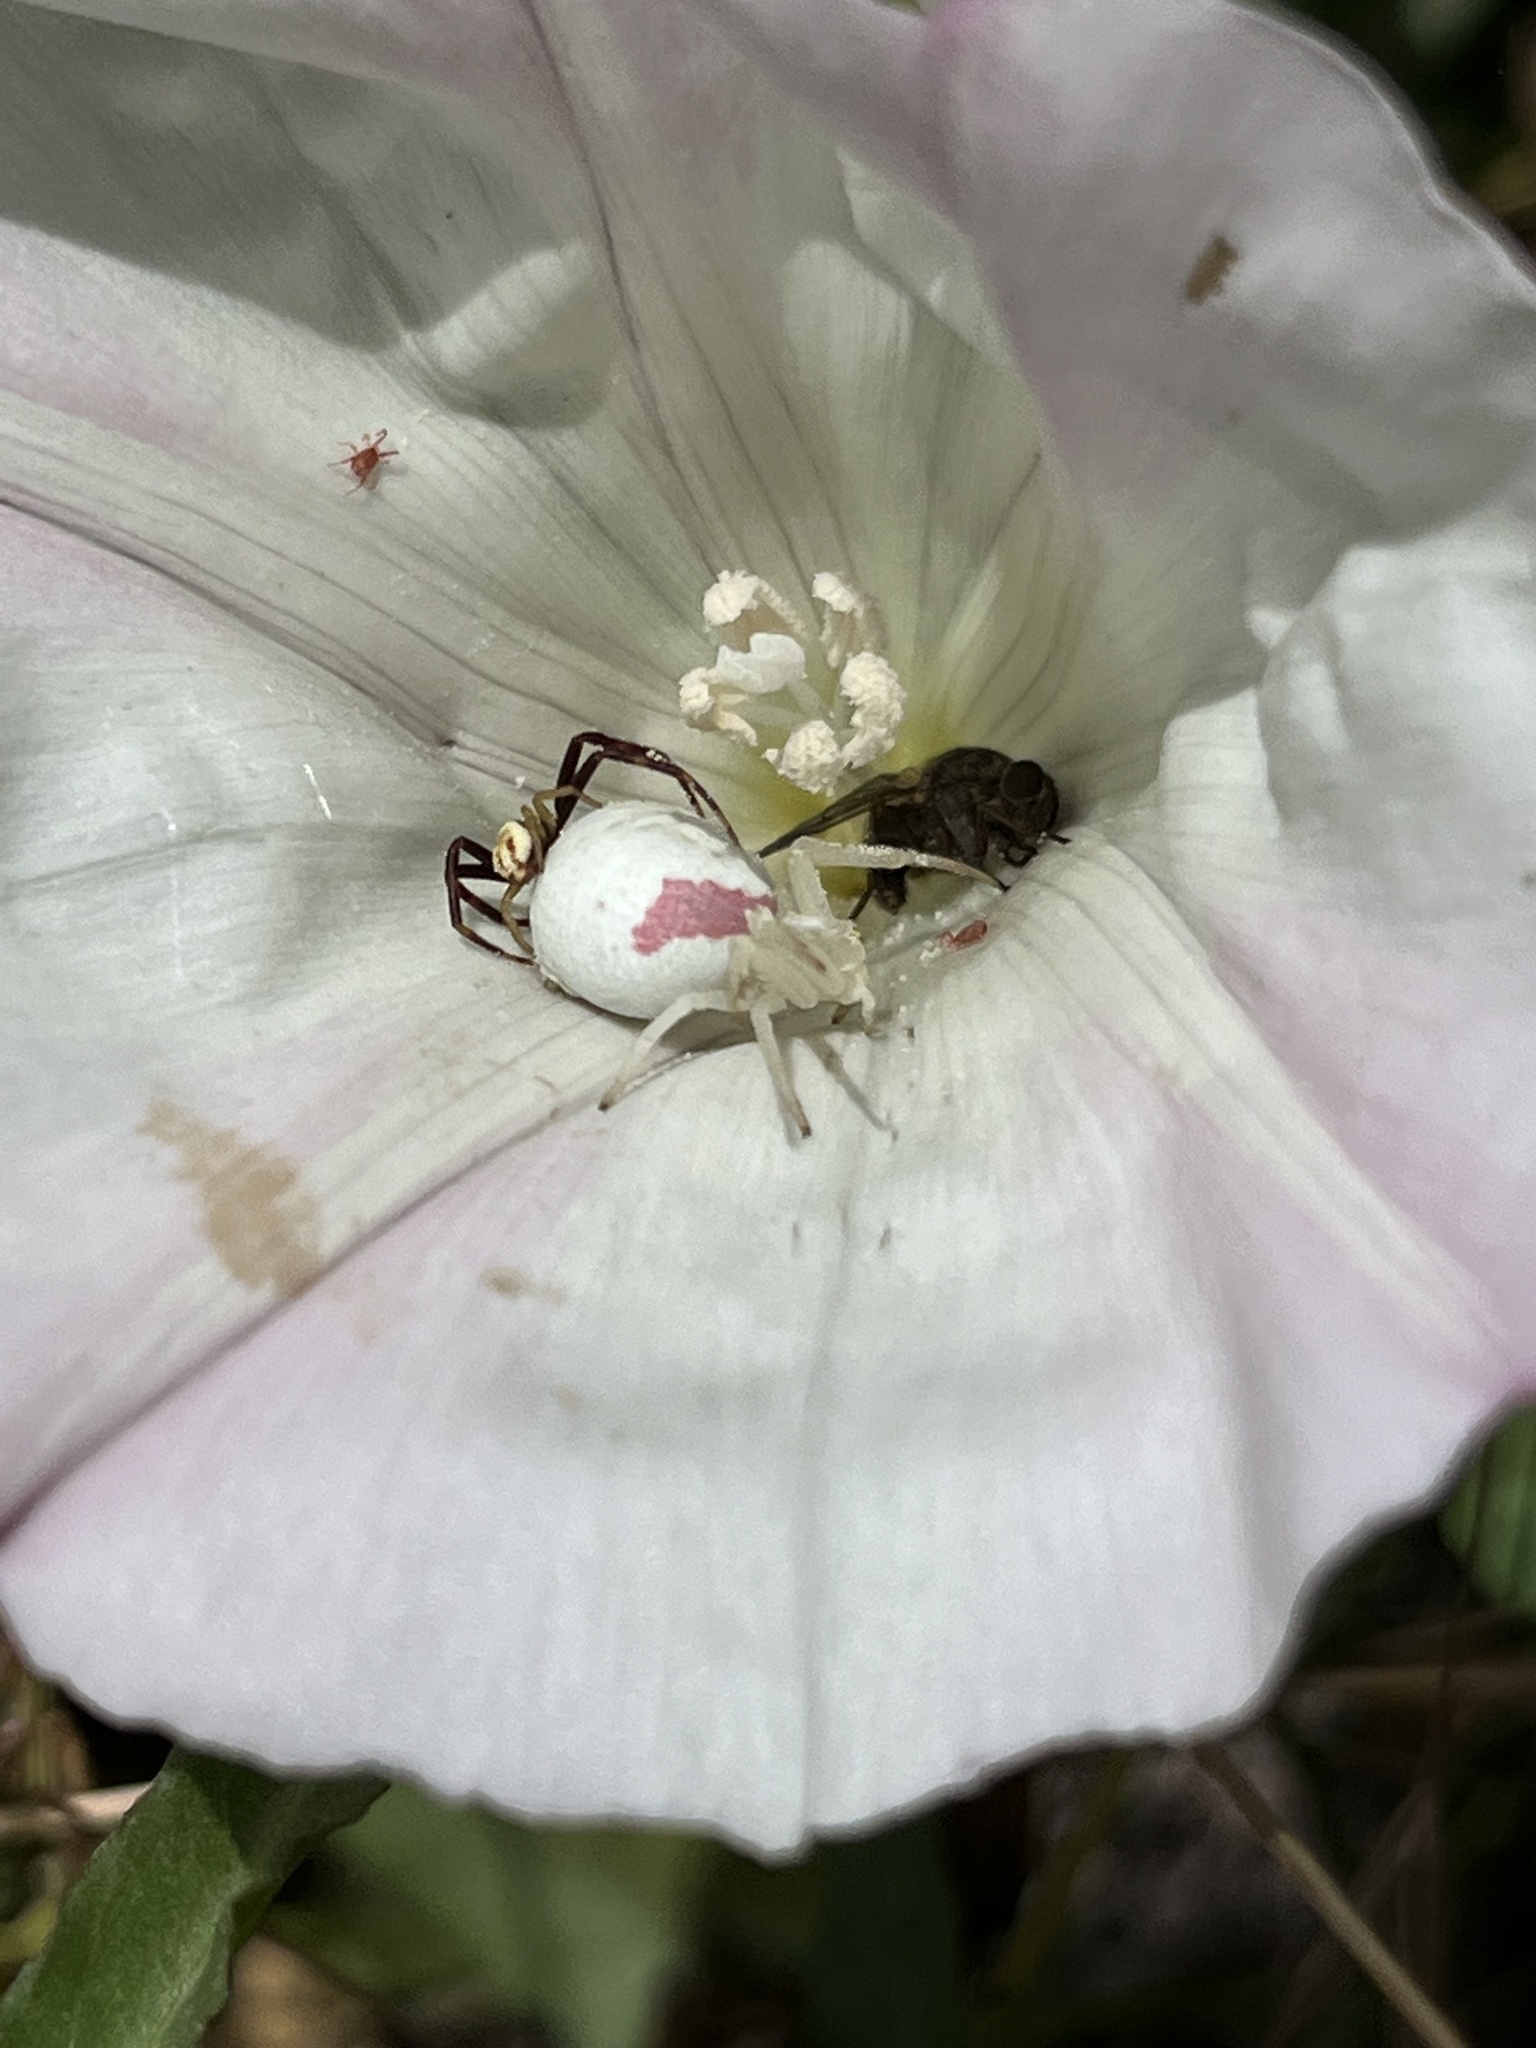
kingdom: Animalia
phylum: Arthropoda
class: Arachnida
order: Araneae
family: Thomisidae
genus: Misumena
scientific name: Misumena vatia
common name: Goldenrod crab spider
